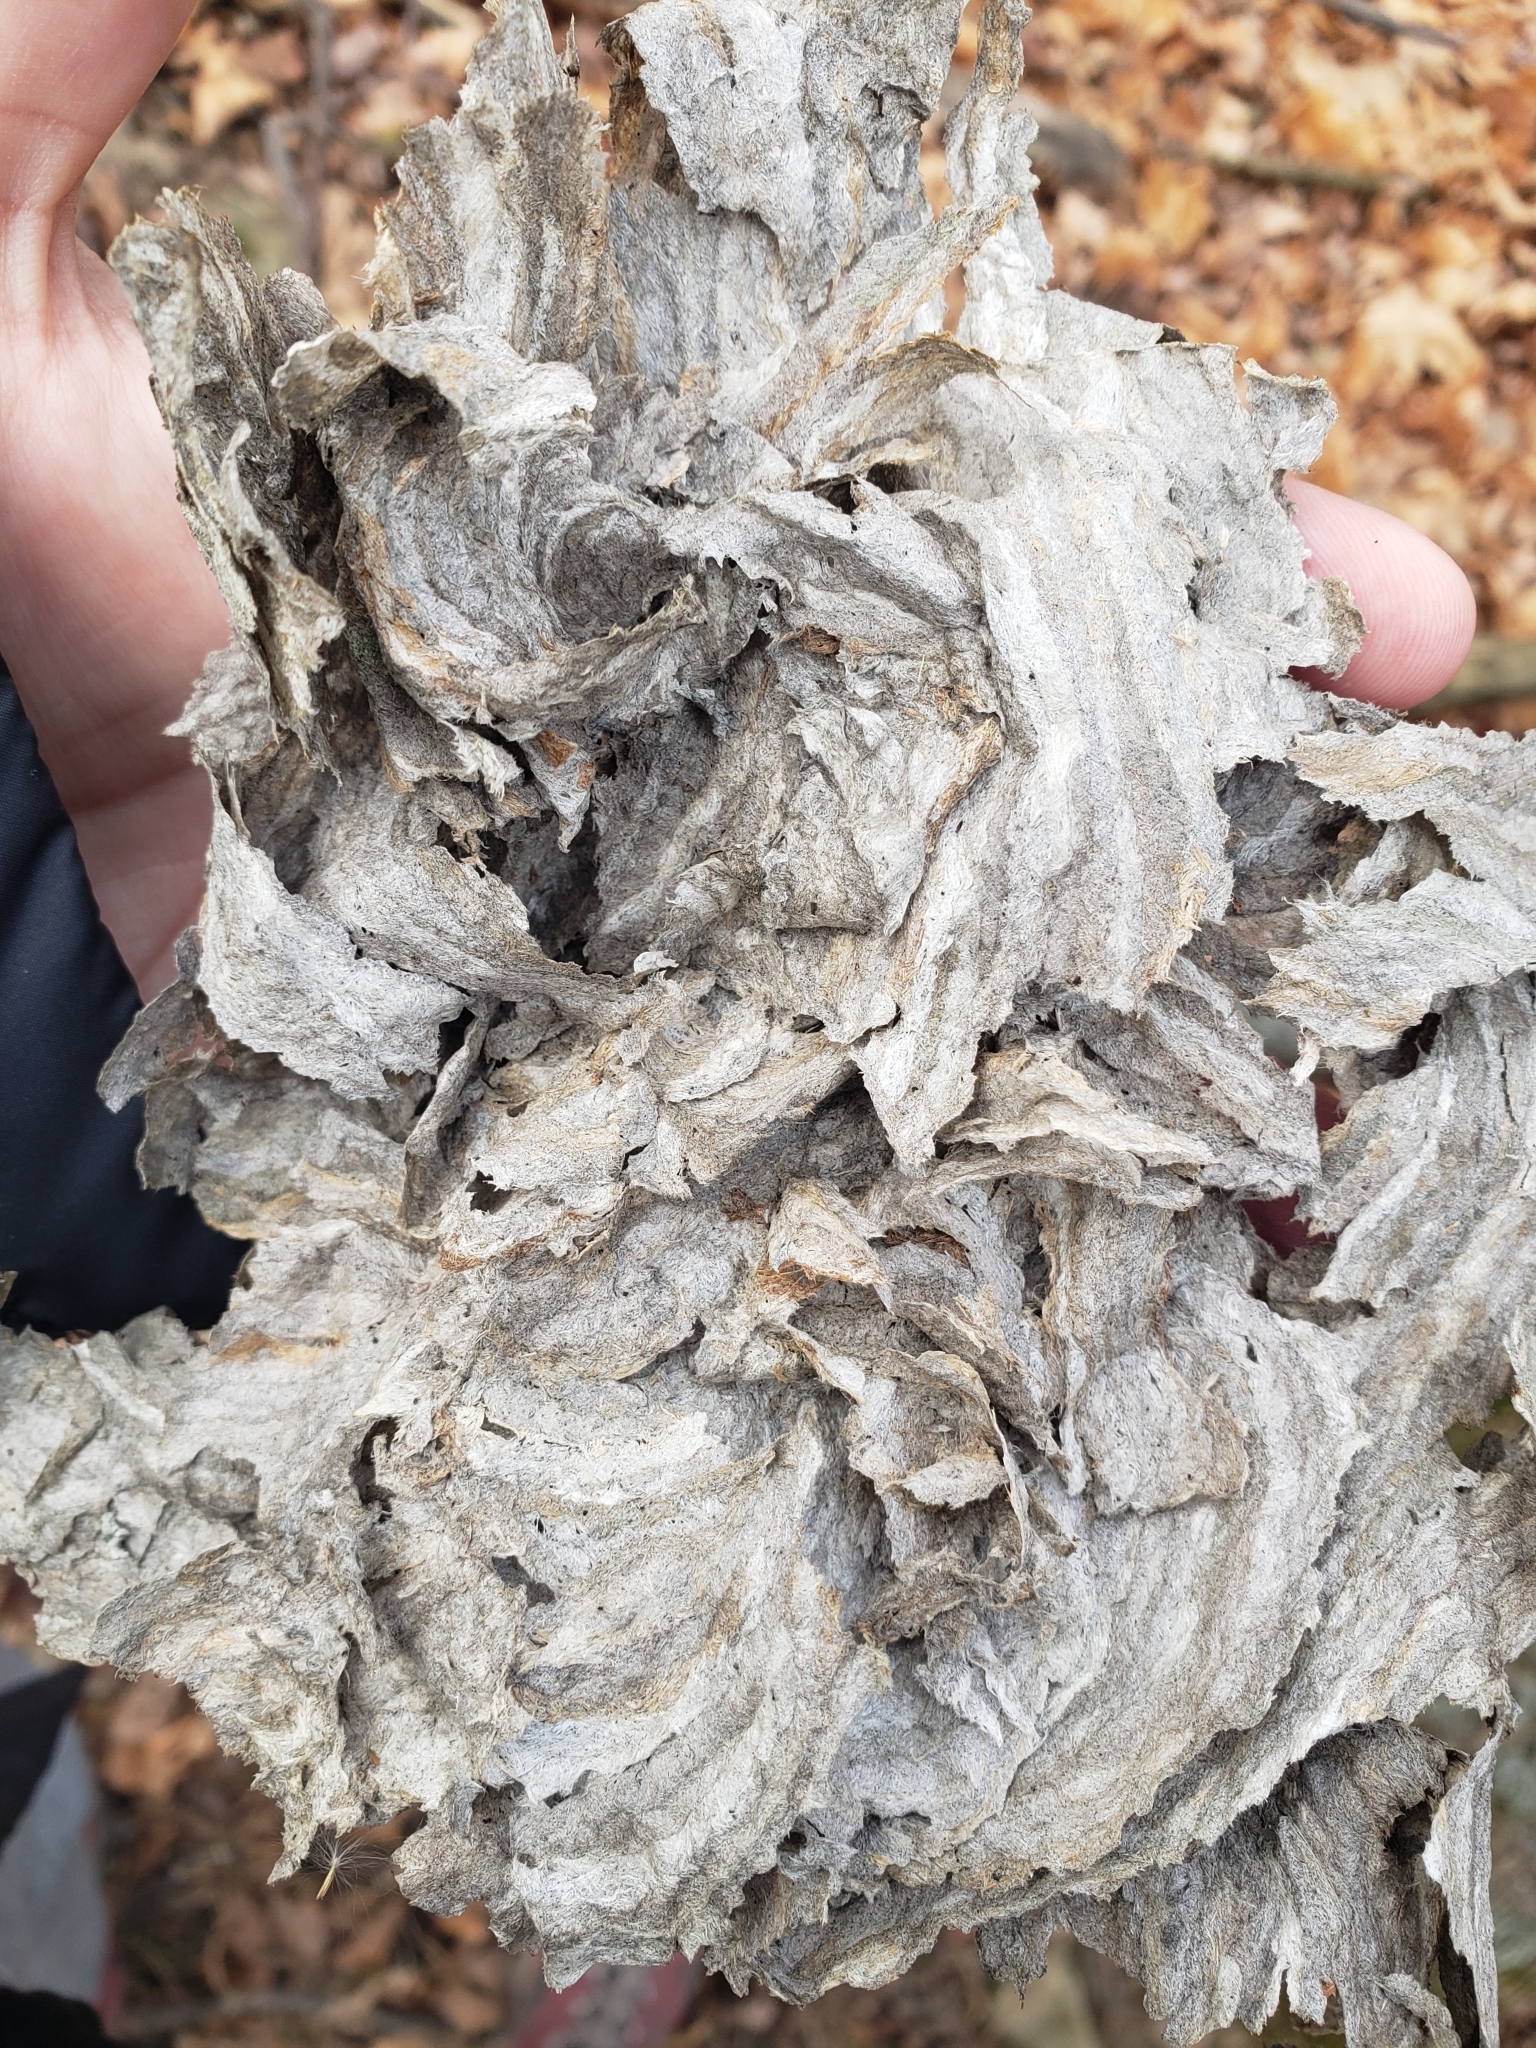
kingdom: Animalia
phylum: Arthropoda
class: Insecta
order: Hymenoptera
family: Vespidae
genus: Dolichovespula
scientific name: Dolichovespula
